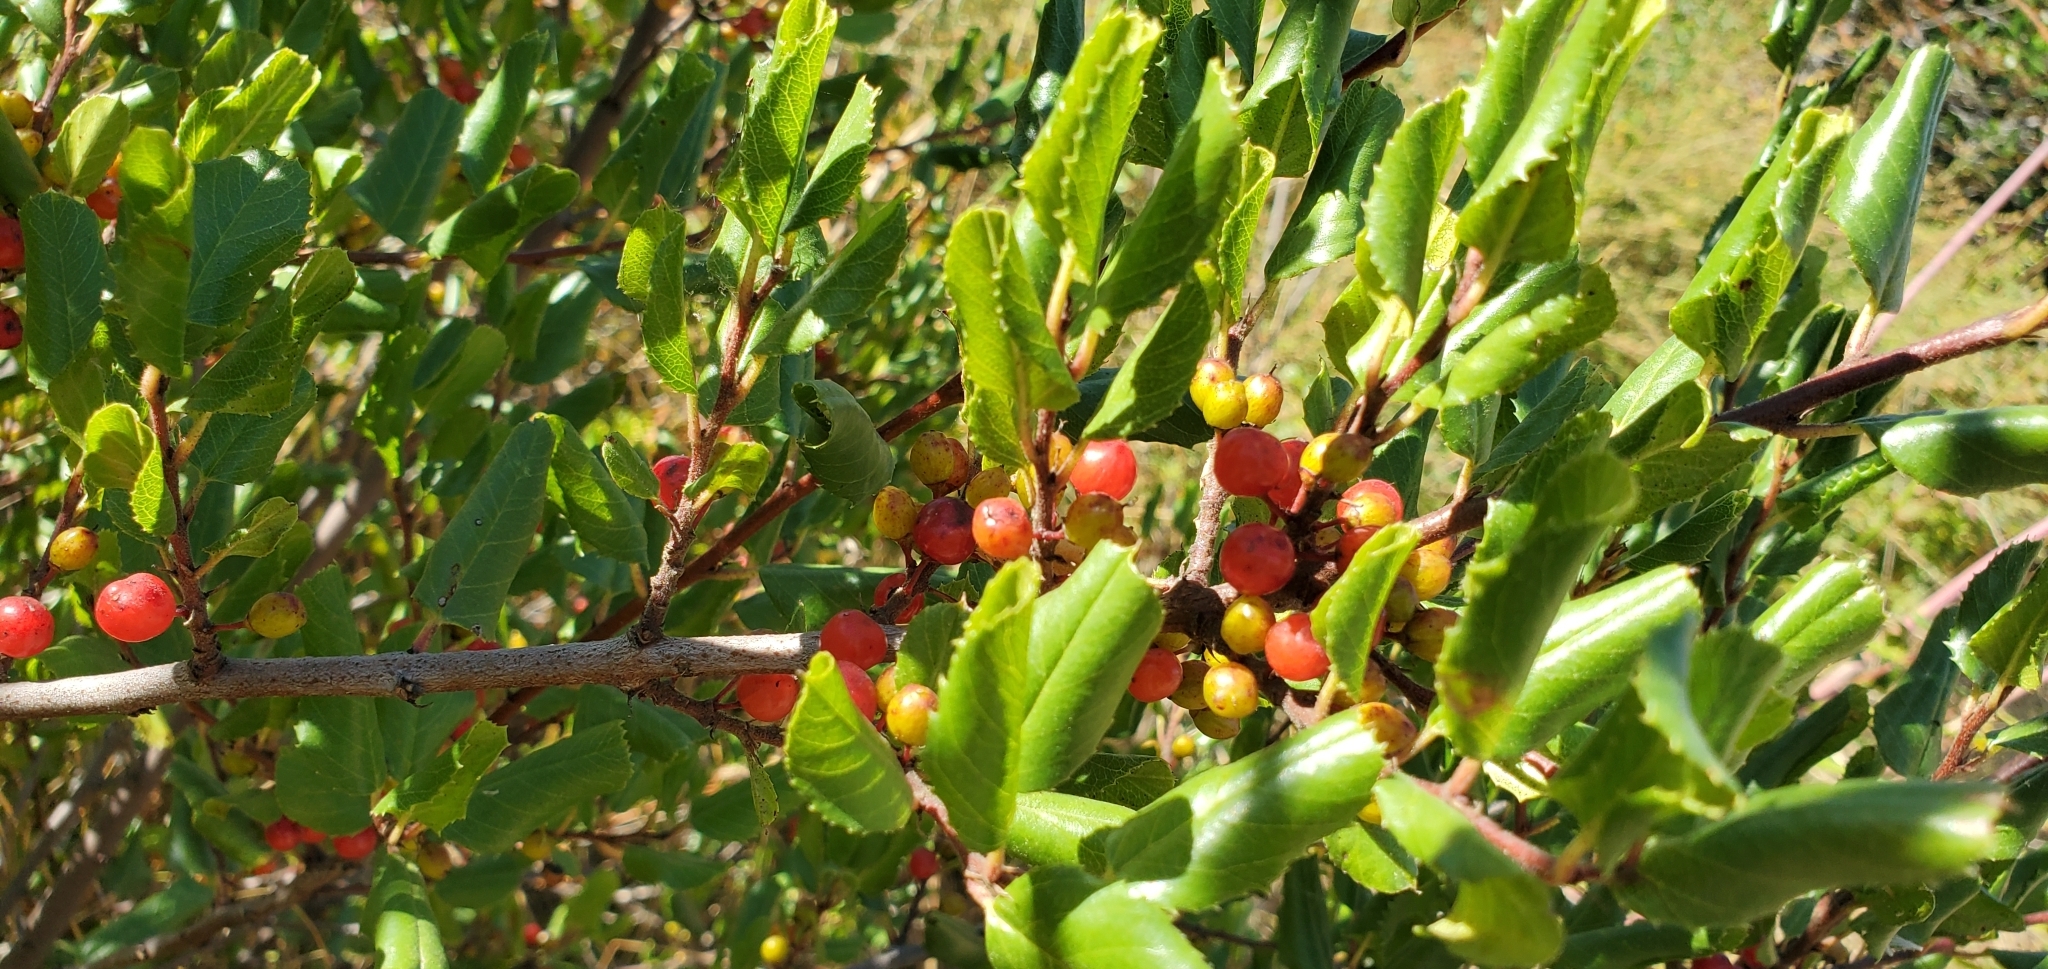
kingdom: Plantae
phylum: Tracheophyta
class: Magnoliopsida
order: Rosales
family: Rhamnaceae
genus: Endotropis
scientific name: Endotropis crocea
